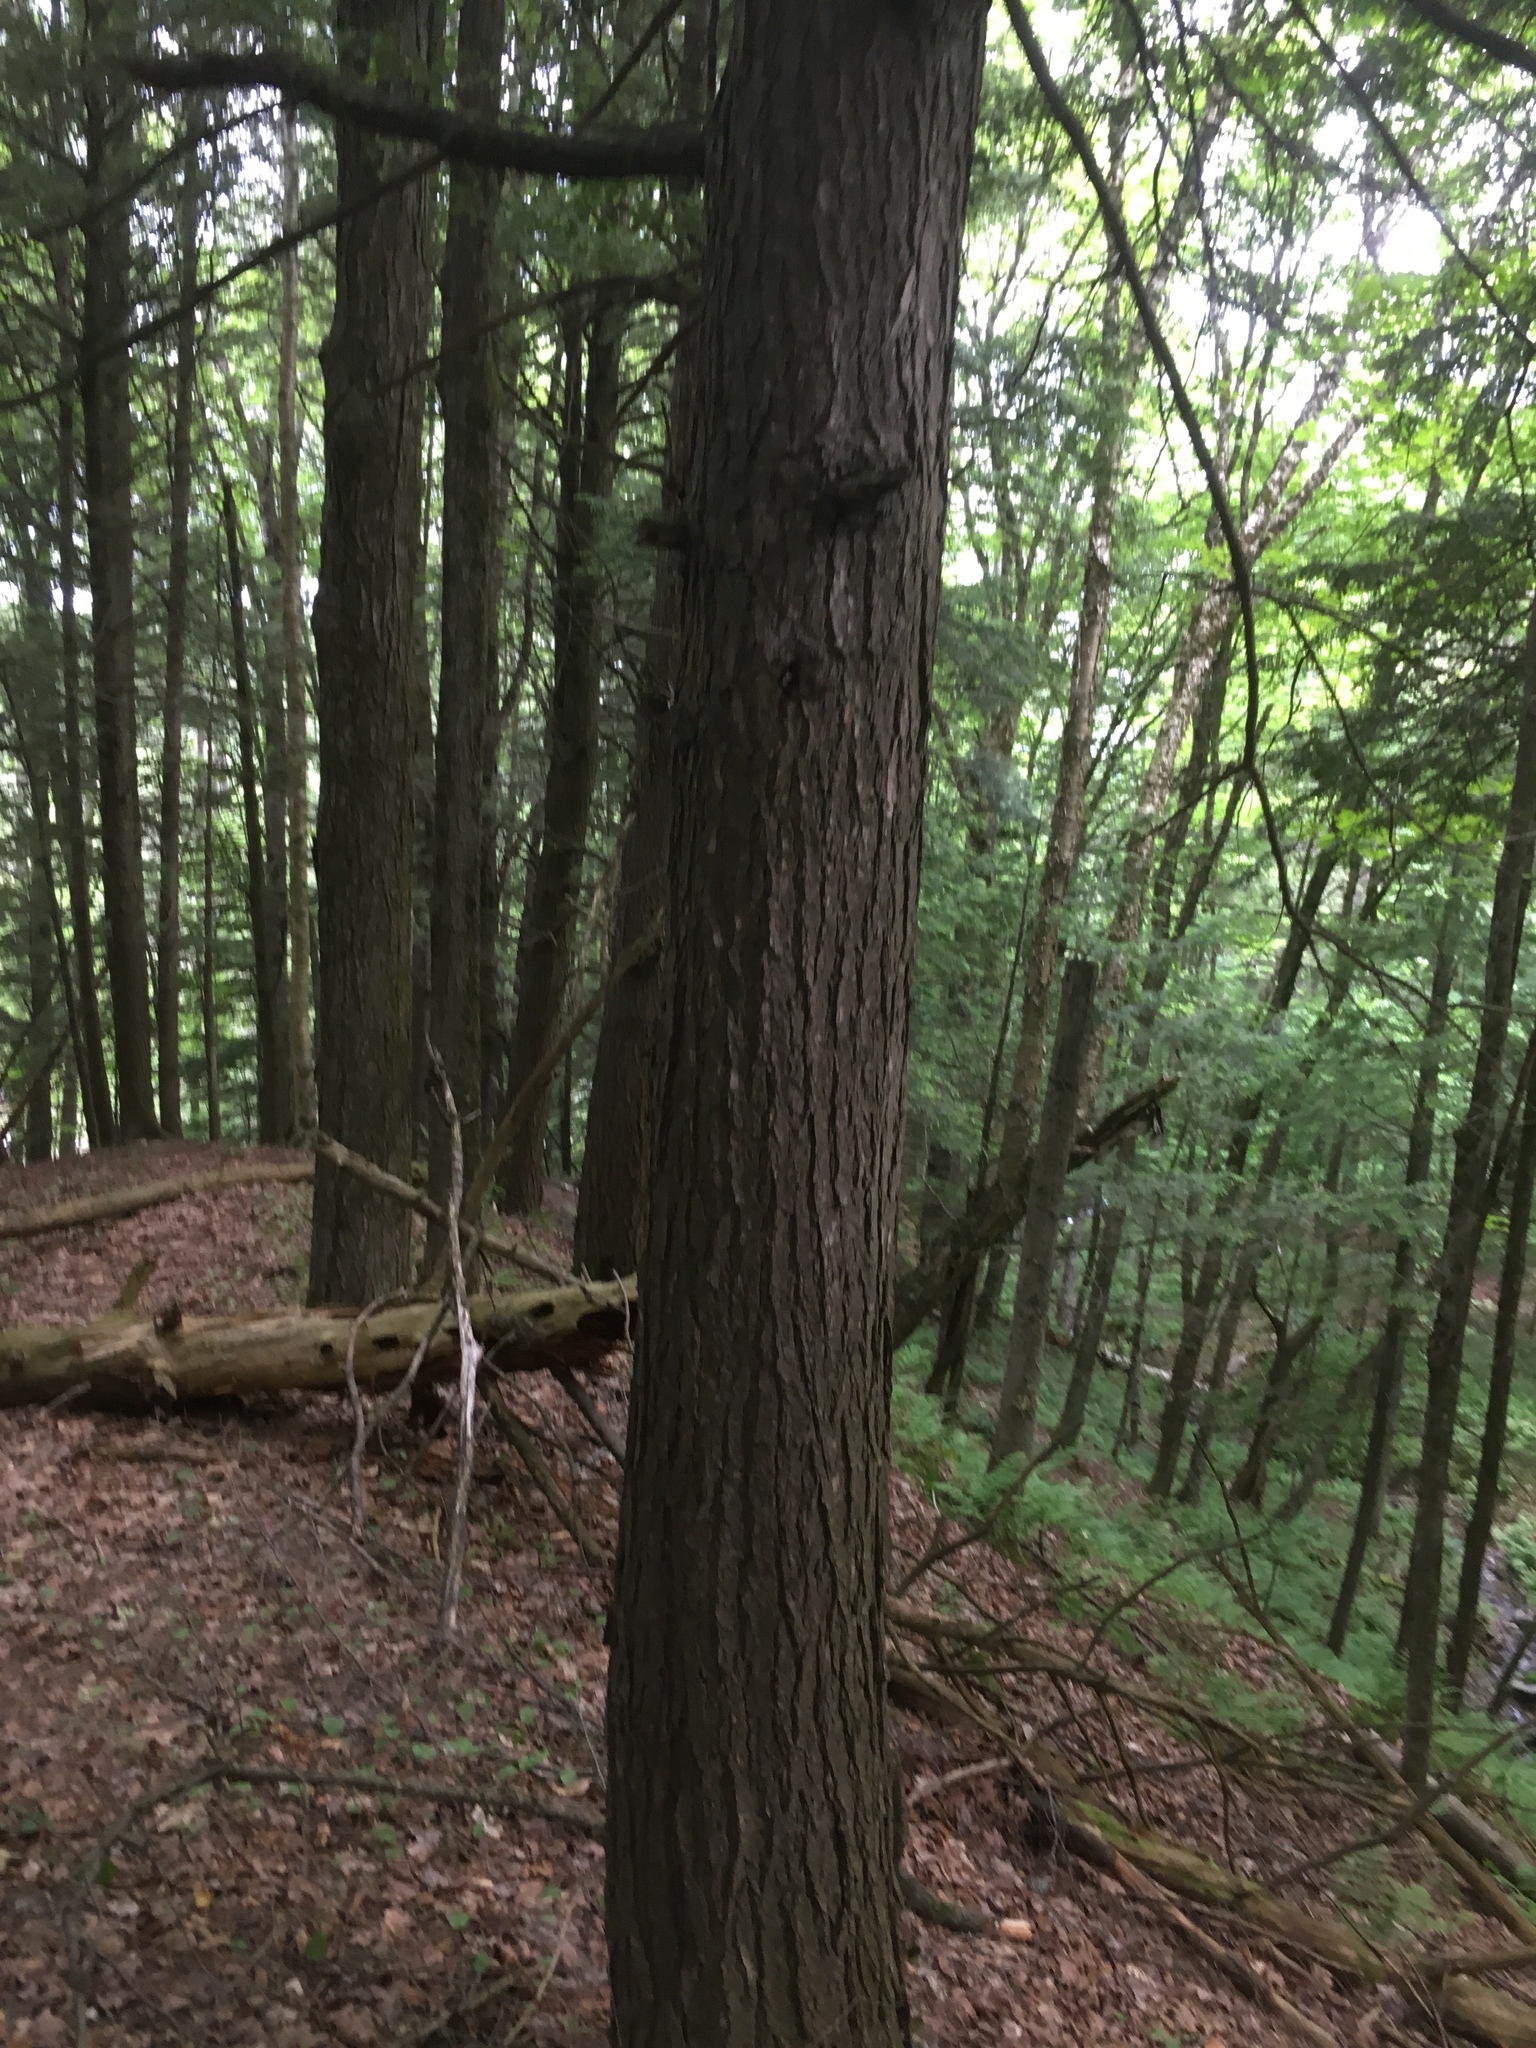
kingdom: Plantae
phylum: Tracheophyta
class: Pinopsida
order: Pinales
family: Pinaceae
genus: Tsuga
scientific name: Tsuga canadensis
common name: Eastern hemlock
